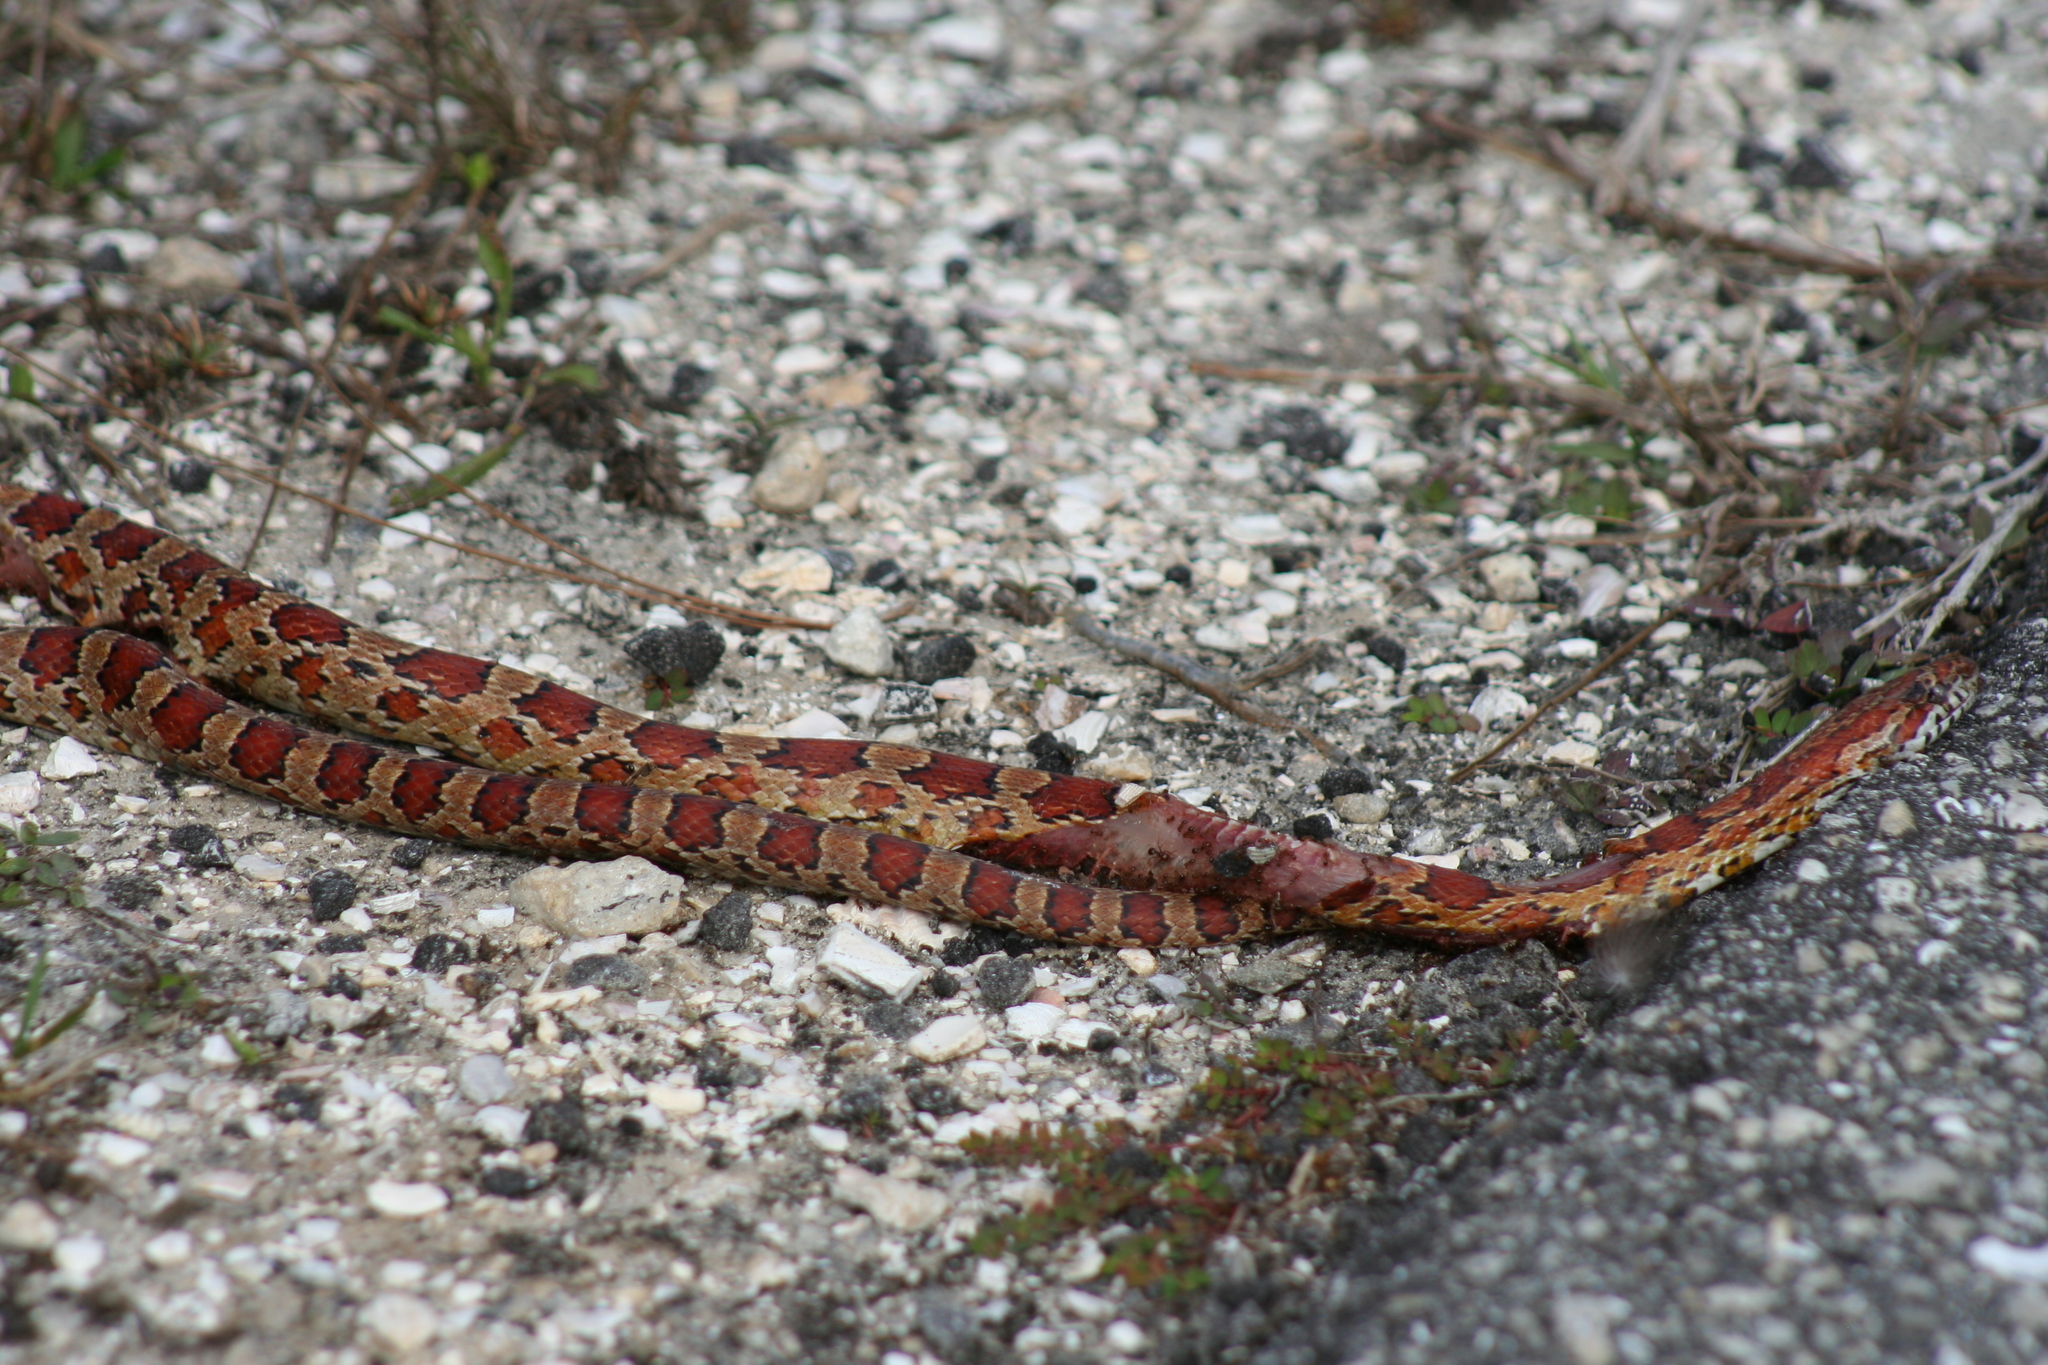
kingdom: Animalia
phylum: Chordata
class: Squamata
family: Colubridae
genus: Pantherophis
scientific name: Pantherophis guttatus
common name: Red cornsnake
